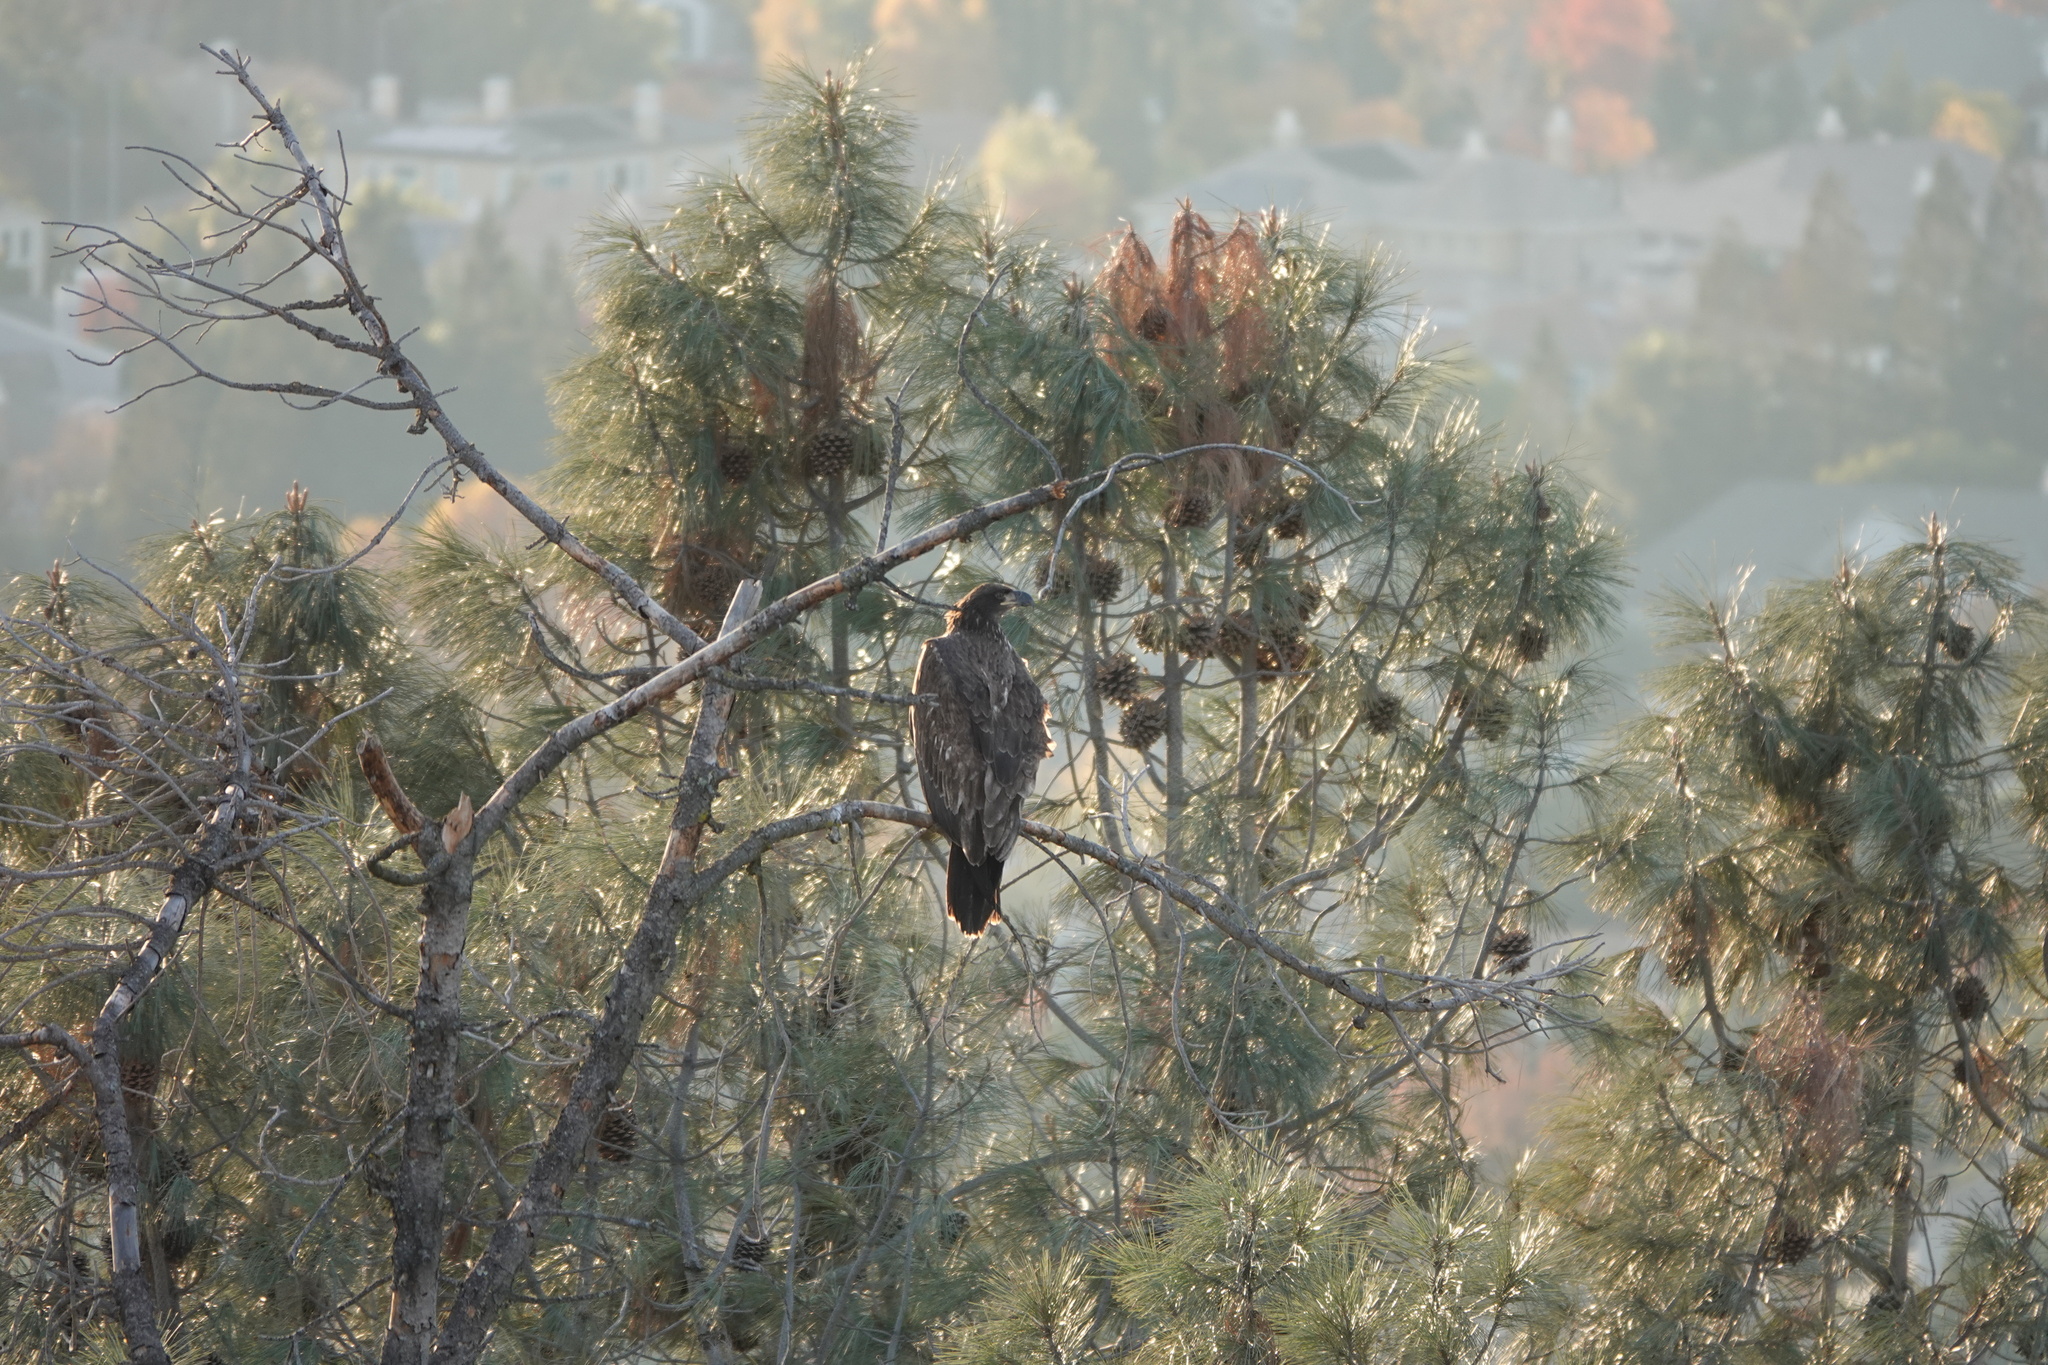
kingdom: Animalia
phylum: Chordata
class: Aves
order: Accipitriformes
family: Accipitridae
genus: Haliaeetus
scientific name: Haliaeetus leucocephalus
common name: Bald eagle
